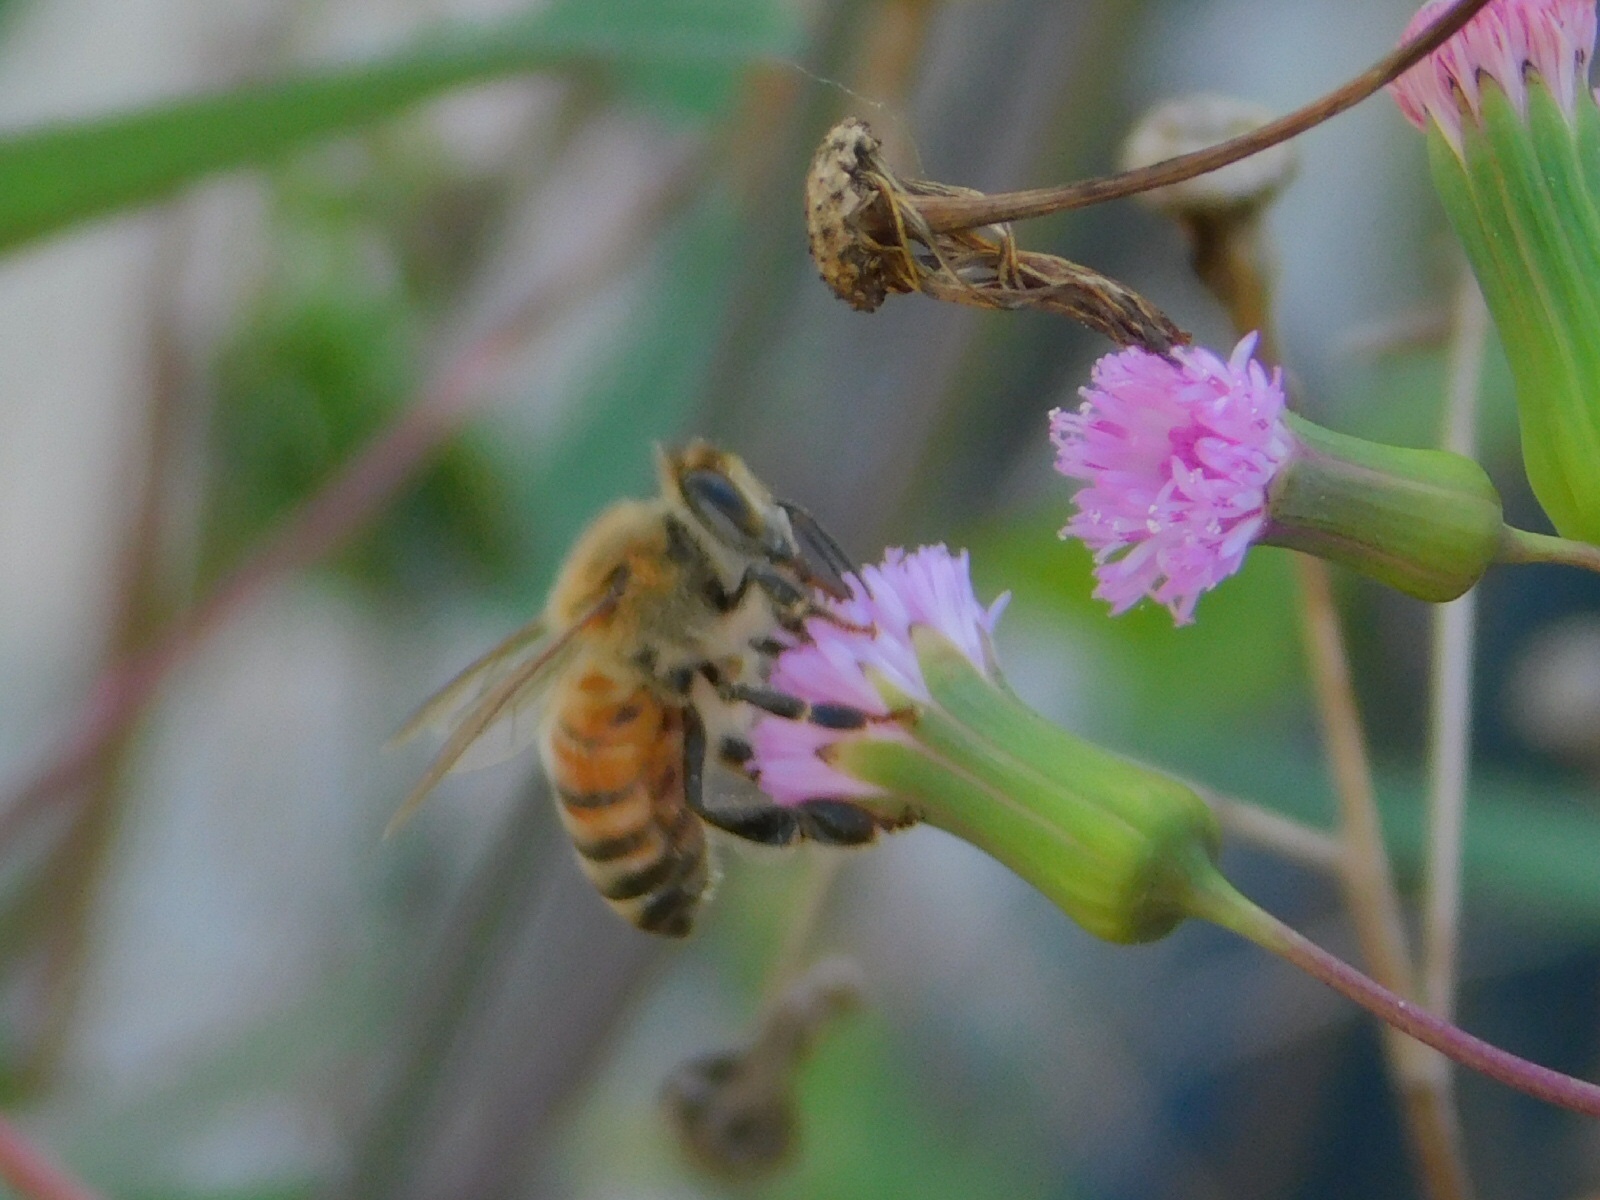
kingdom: Animalia
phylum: Arthropoda
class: Insecta
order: Hymenoptera
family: Apidae
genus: Apis
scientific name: Apis mellifera
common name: Honey bee
